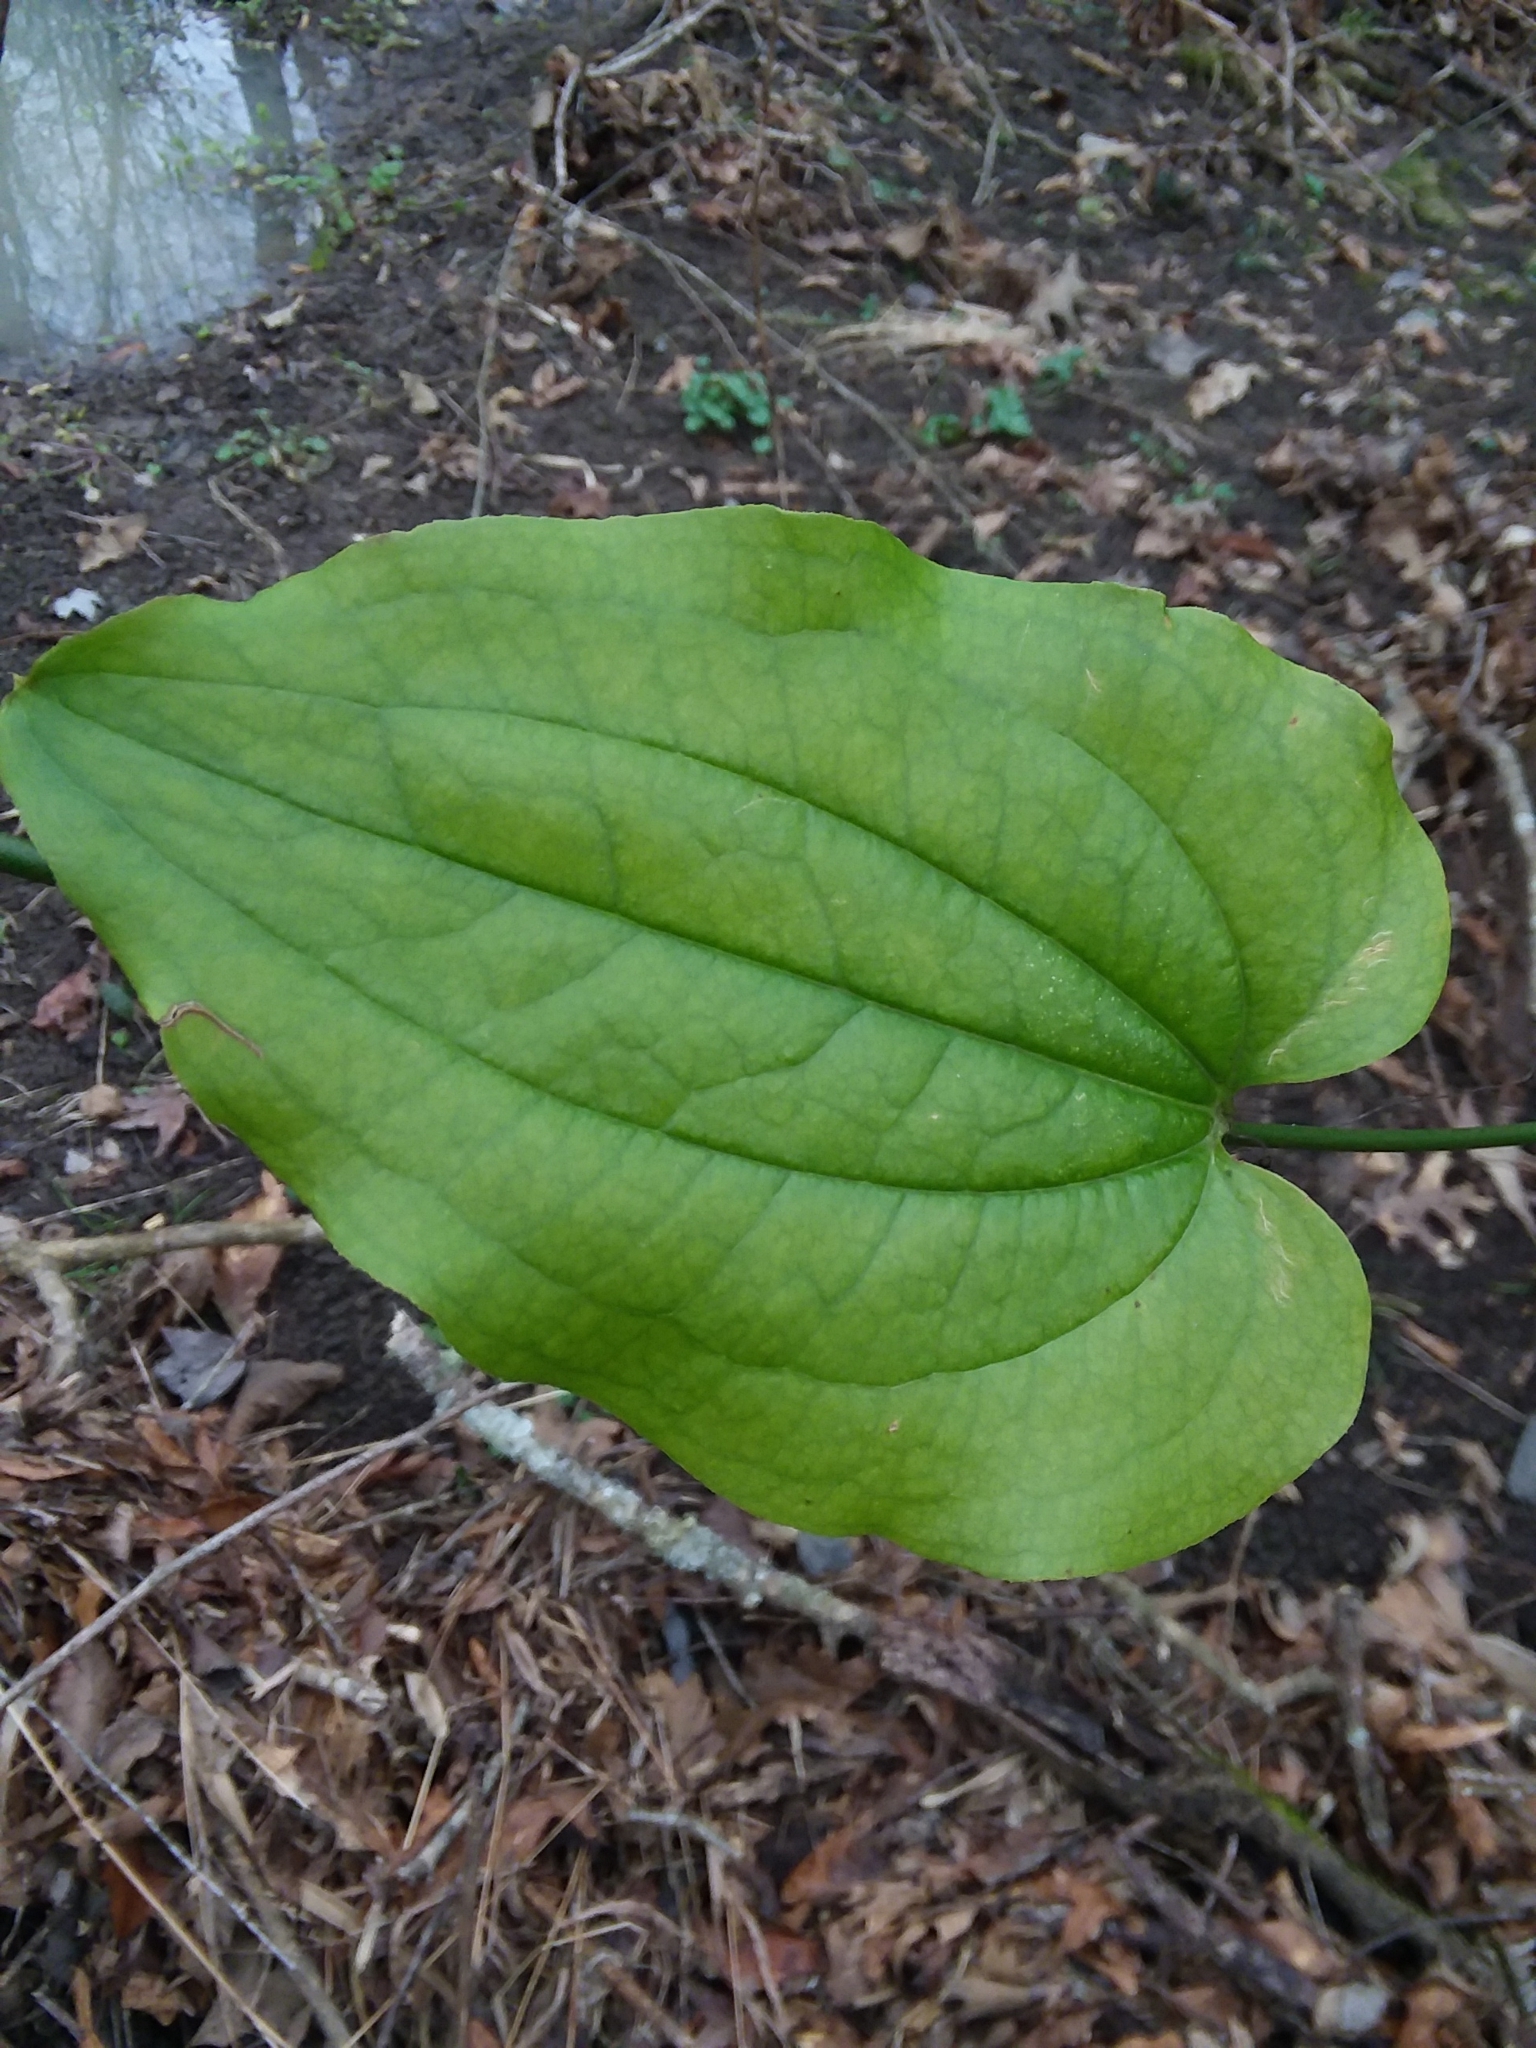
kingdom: Plantae
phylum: Tracheophyta
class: Liliopsida
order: Liliales
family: Smilacaceae
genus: Smilax
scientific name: Smilax tamnoides
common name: Hellfetter
